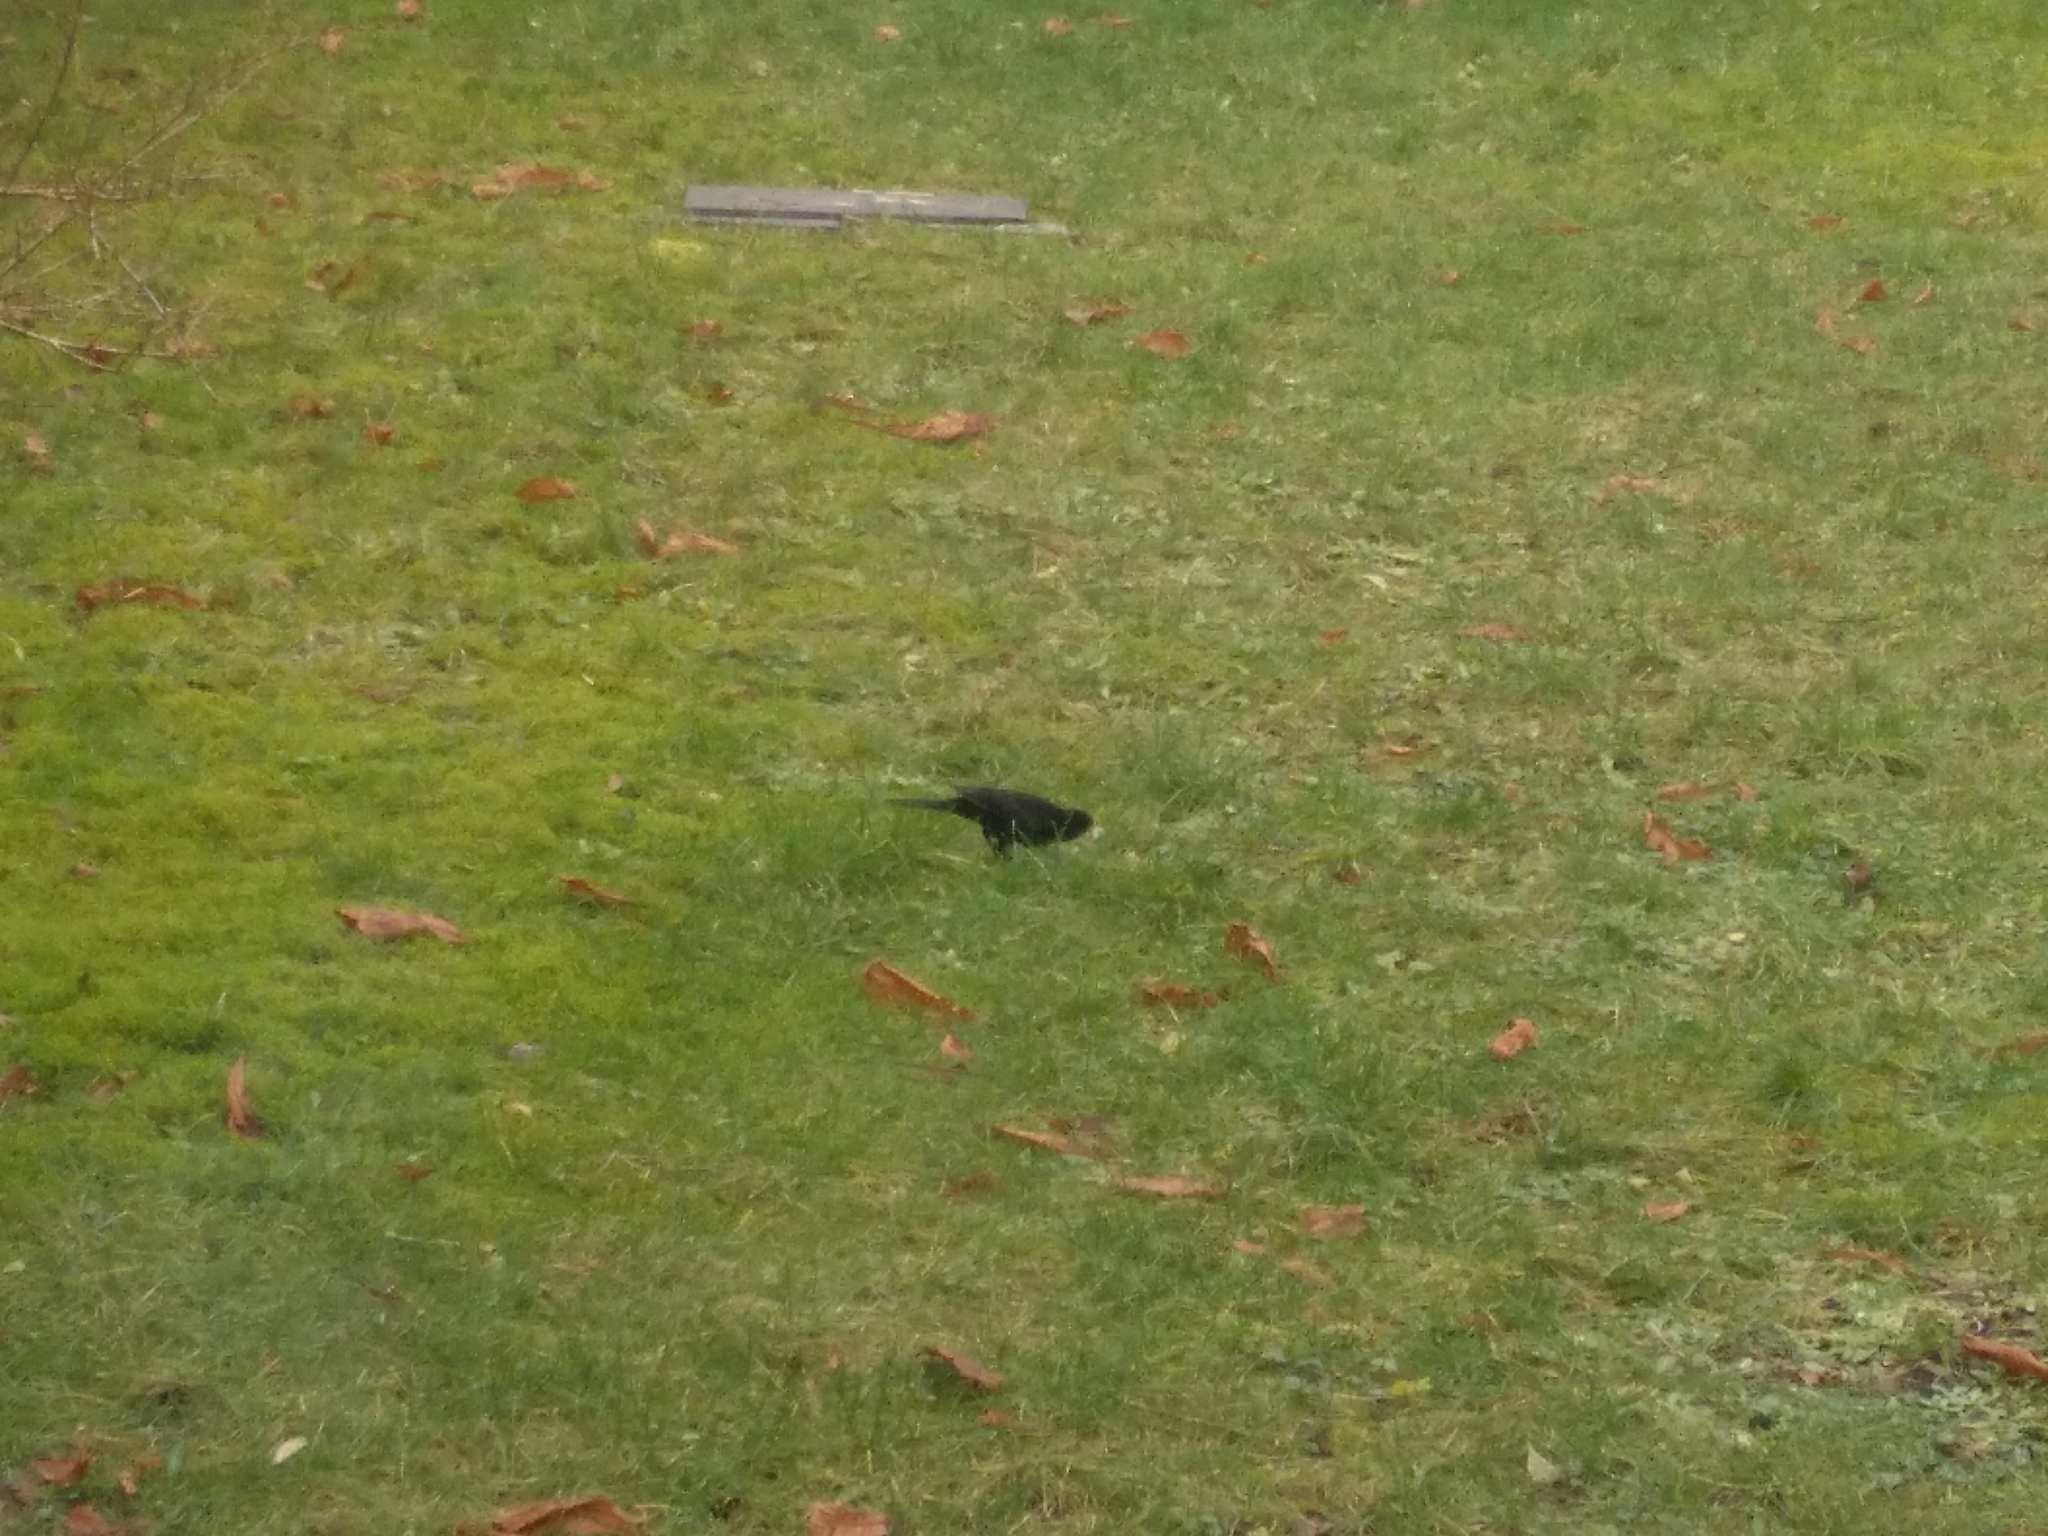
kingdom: Animalia
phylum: Chordata
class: Aves
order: Passeriformes
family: Turdidae
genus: Turdus
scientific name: Turdus merula
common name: Common blackbird
